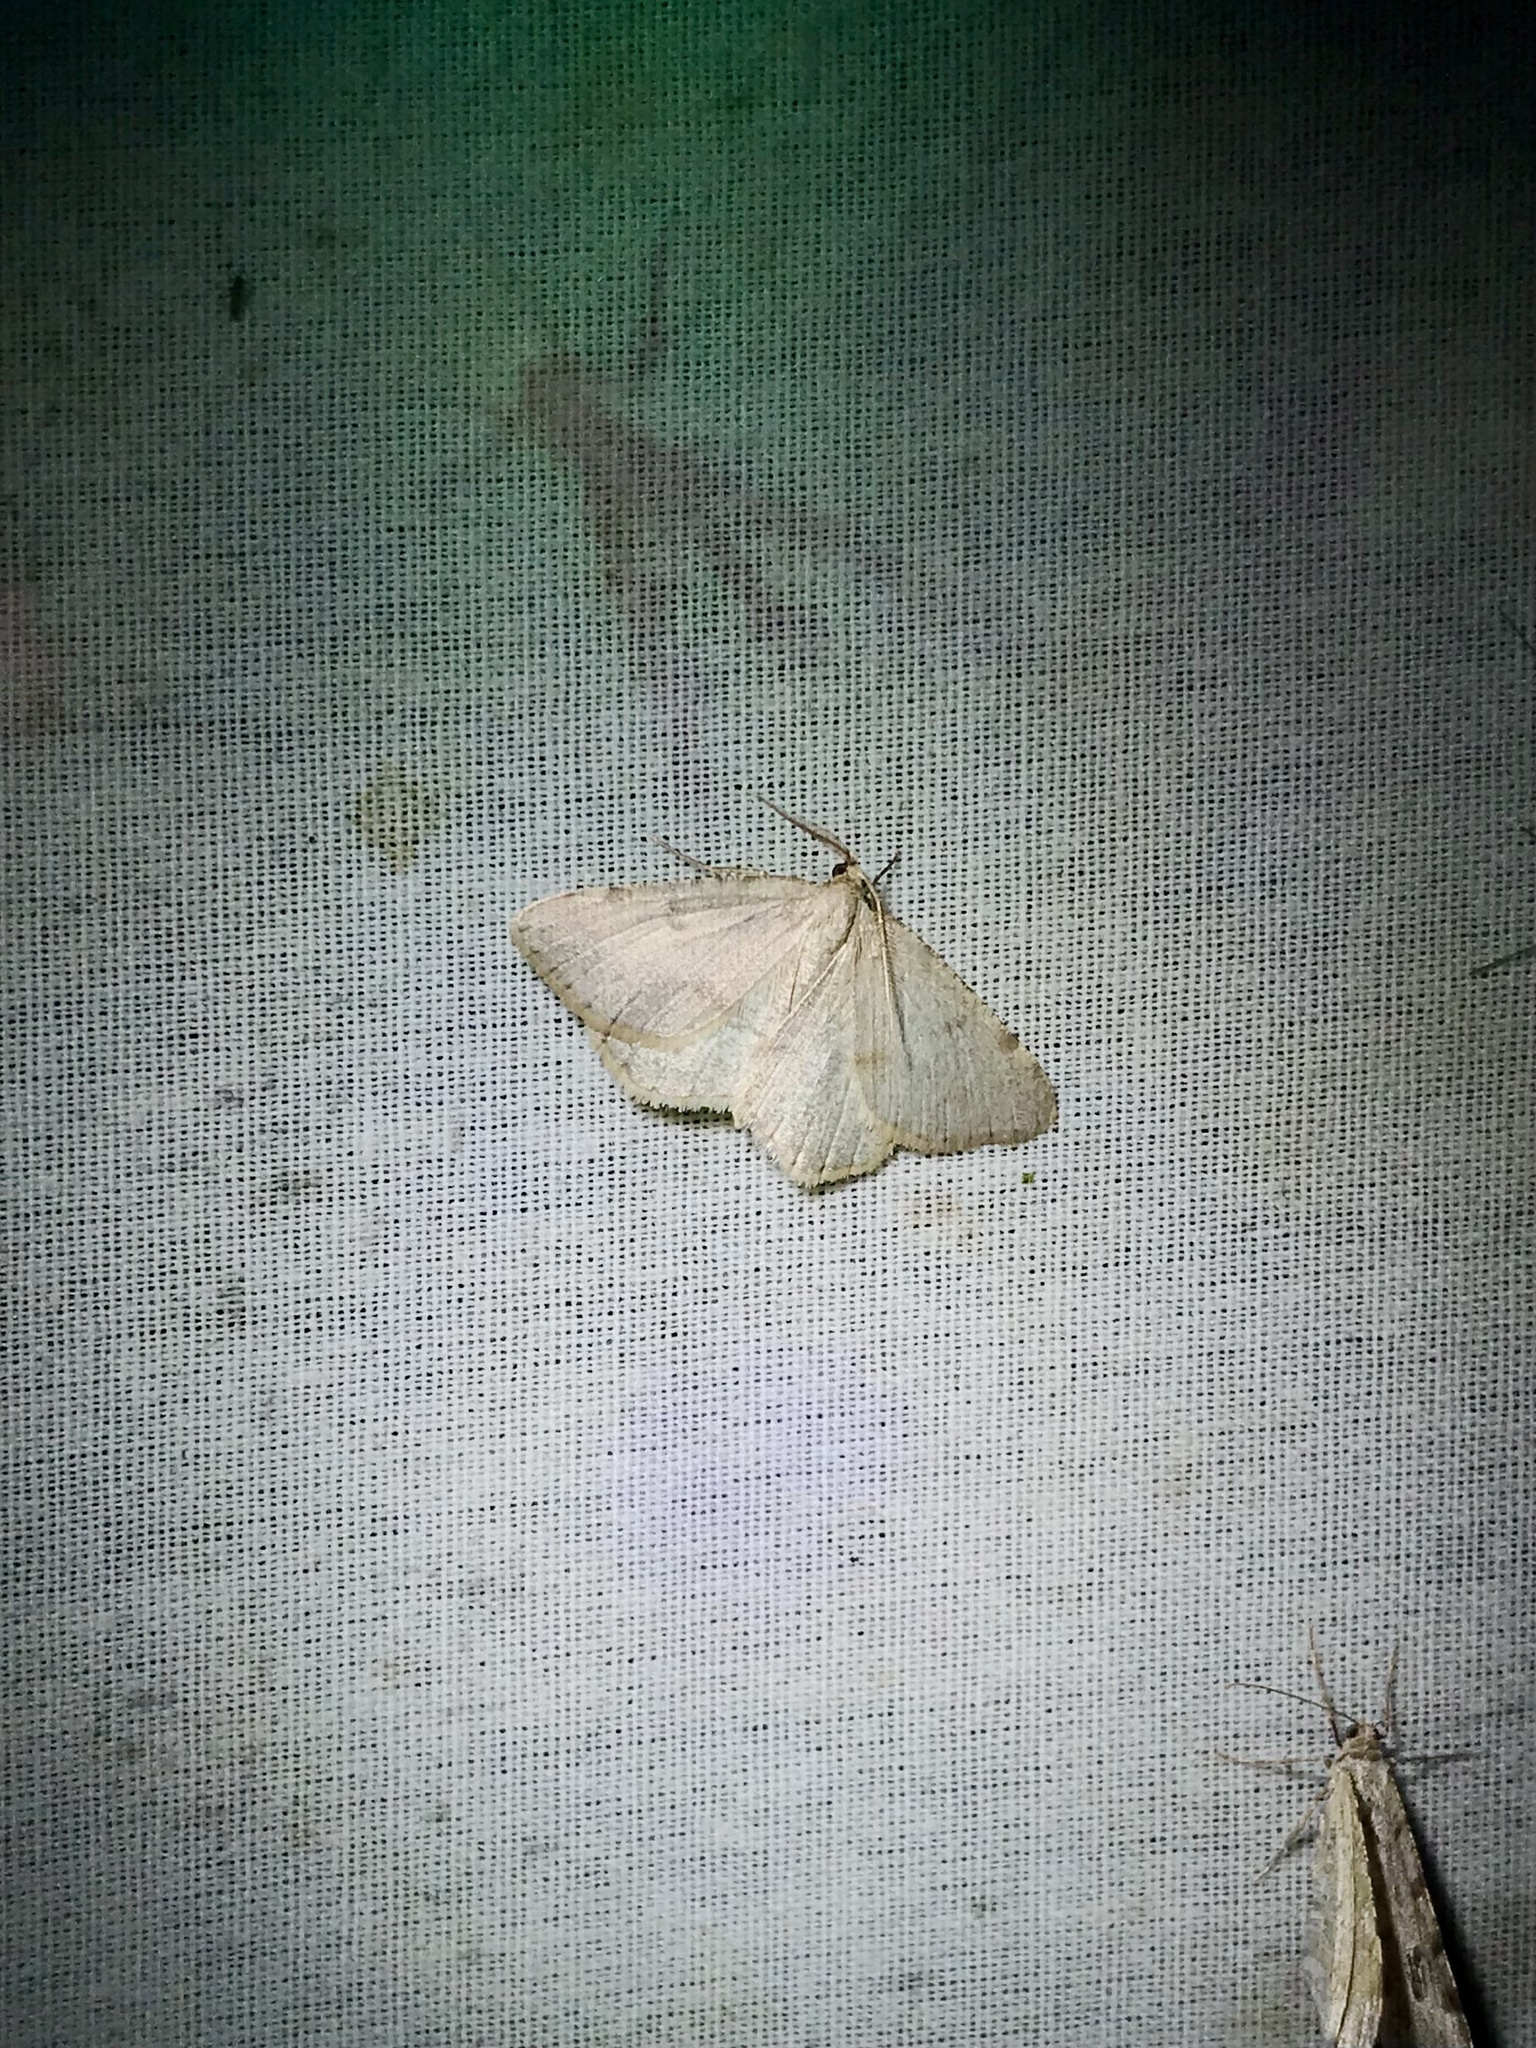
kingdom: Animalia
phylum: Arthropoda
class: Insecta
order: Lepidoptera
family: Geometridae
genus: Macaria
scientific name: Macaria sulphurea
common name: Sulphur angle
